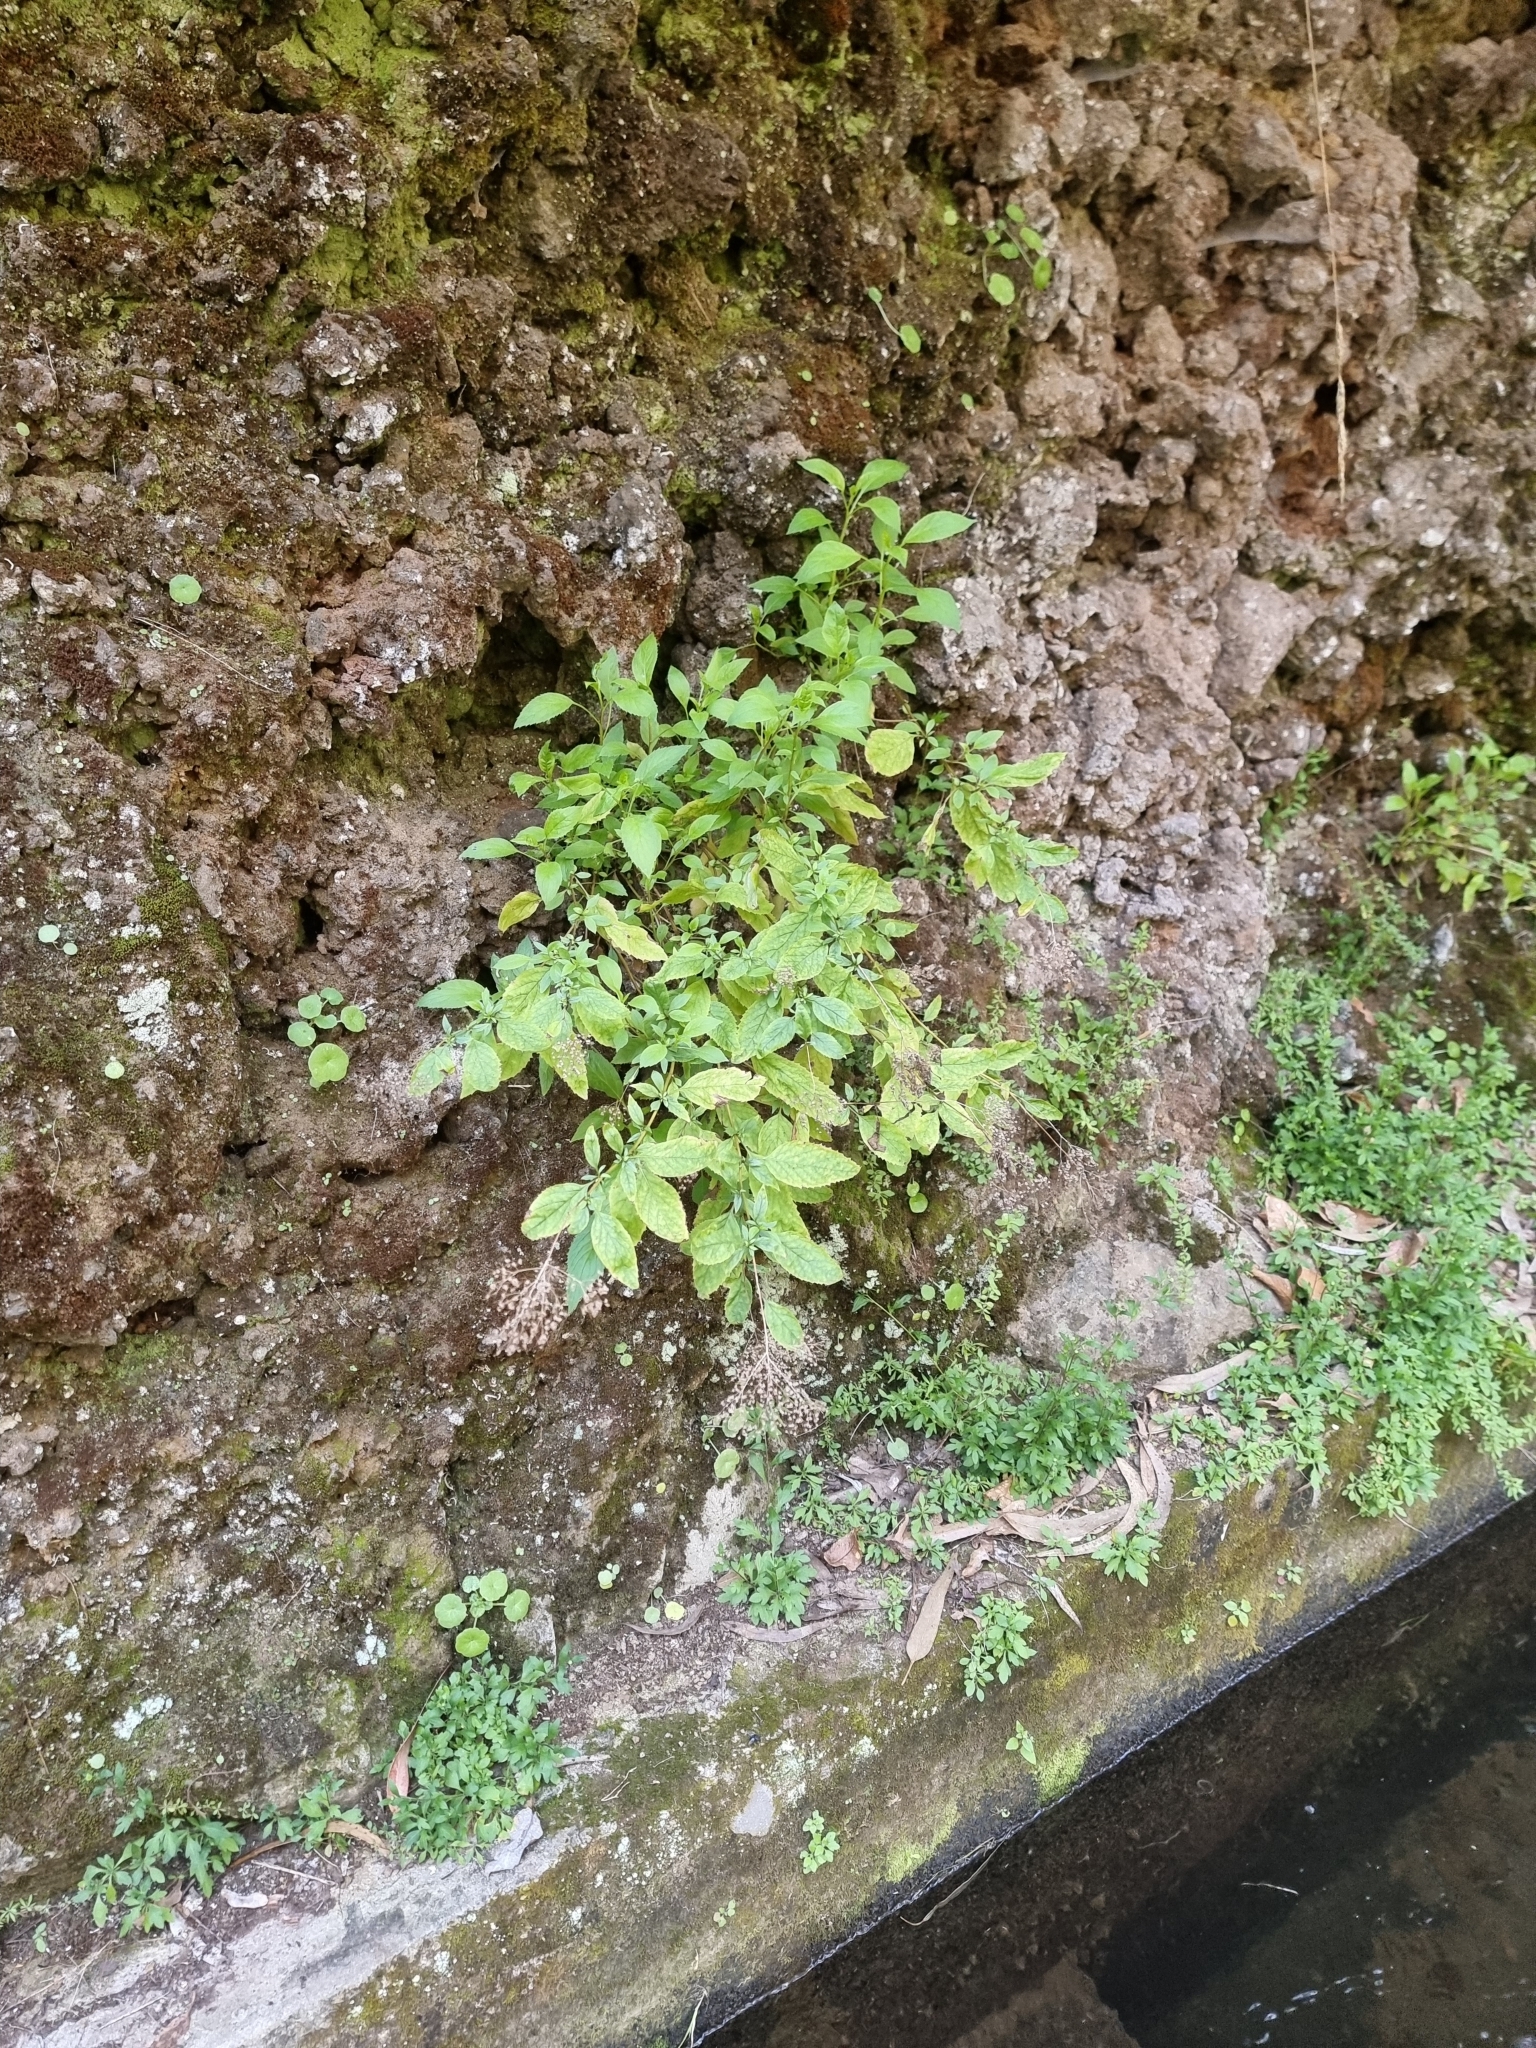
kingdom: Plantae
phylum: Tracheophyta
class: Magnoliopsida
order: Asterales
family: Campanulaceae
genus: Trachelium
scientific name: Trachelium caeruleum
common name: Throatwort
